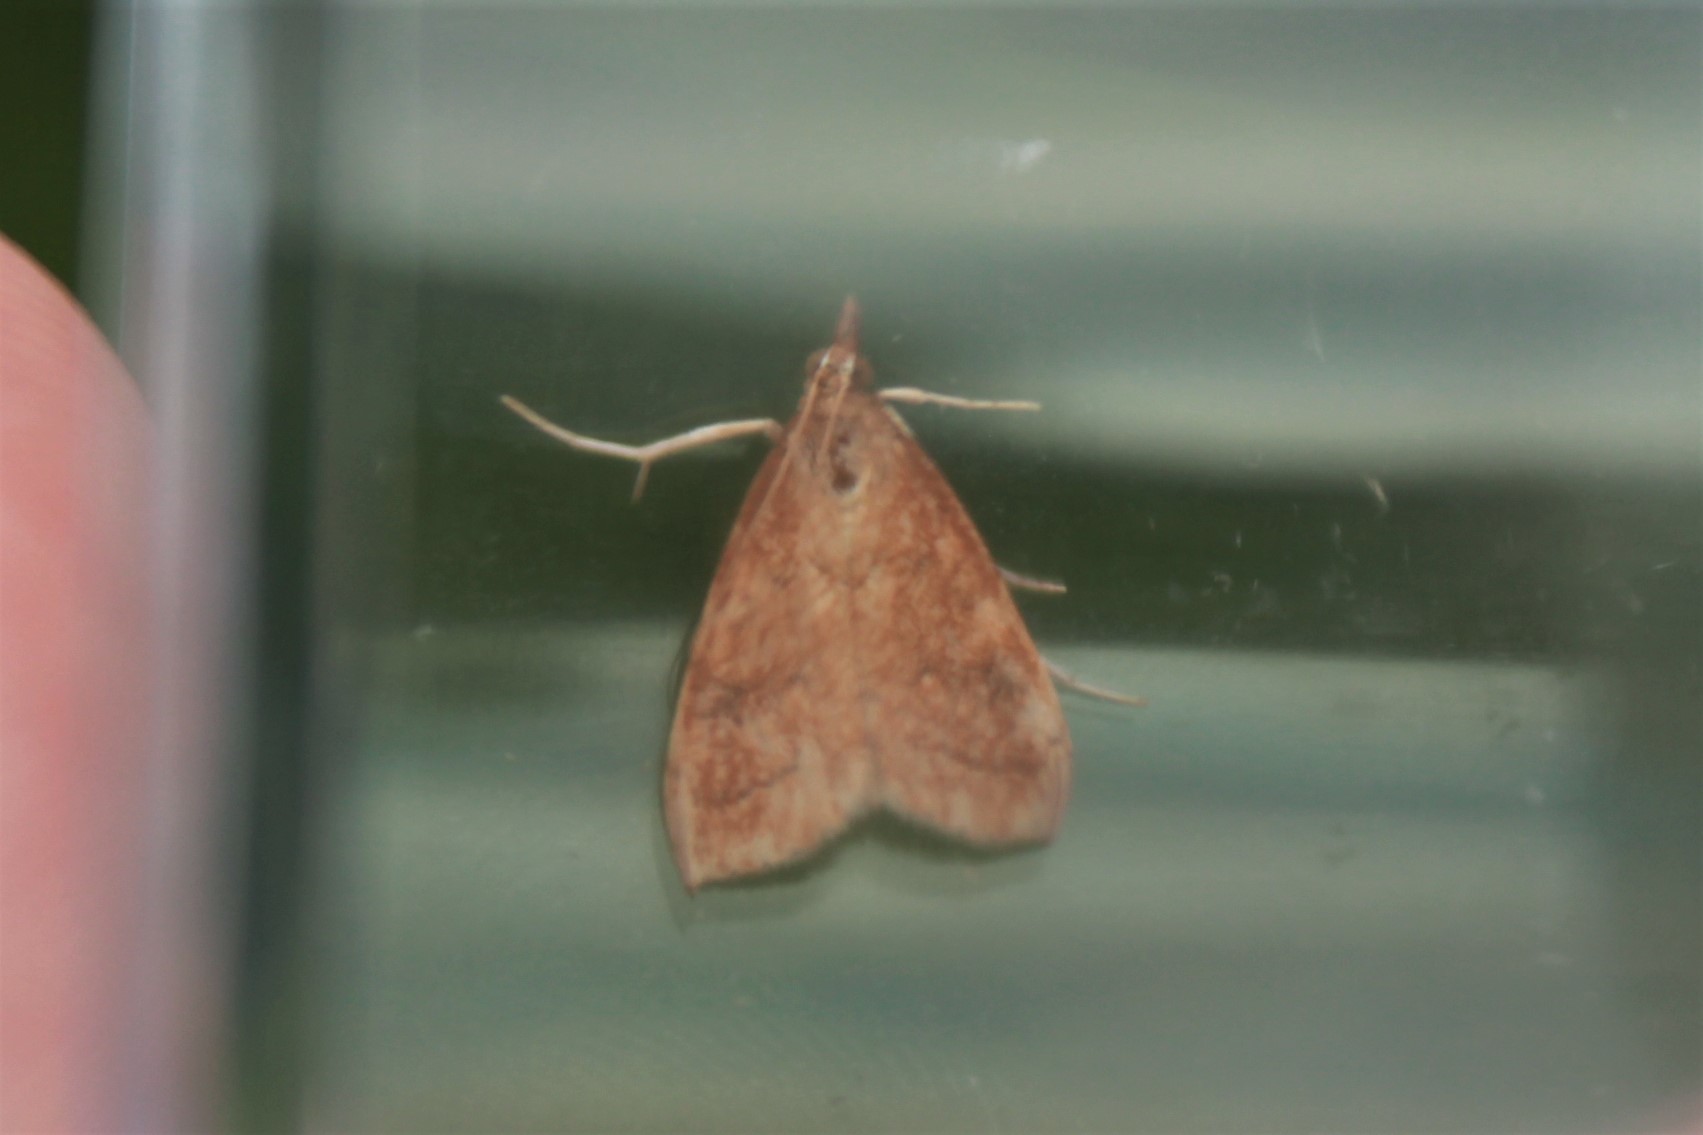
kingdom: Animalia
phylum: Arthropoda
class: Insecta
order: Lepidoptera
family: Crambidae
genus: Udea
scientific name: Udea rubigalis
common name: Celery leaftier moth
